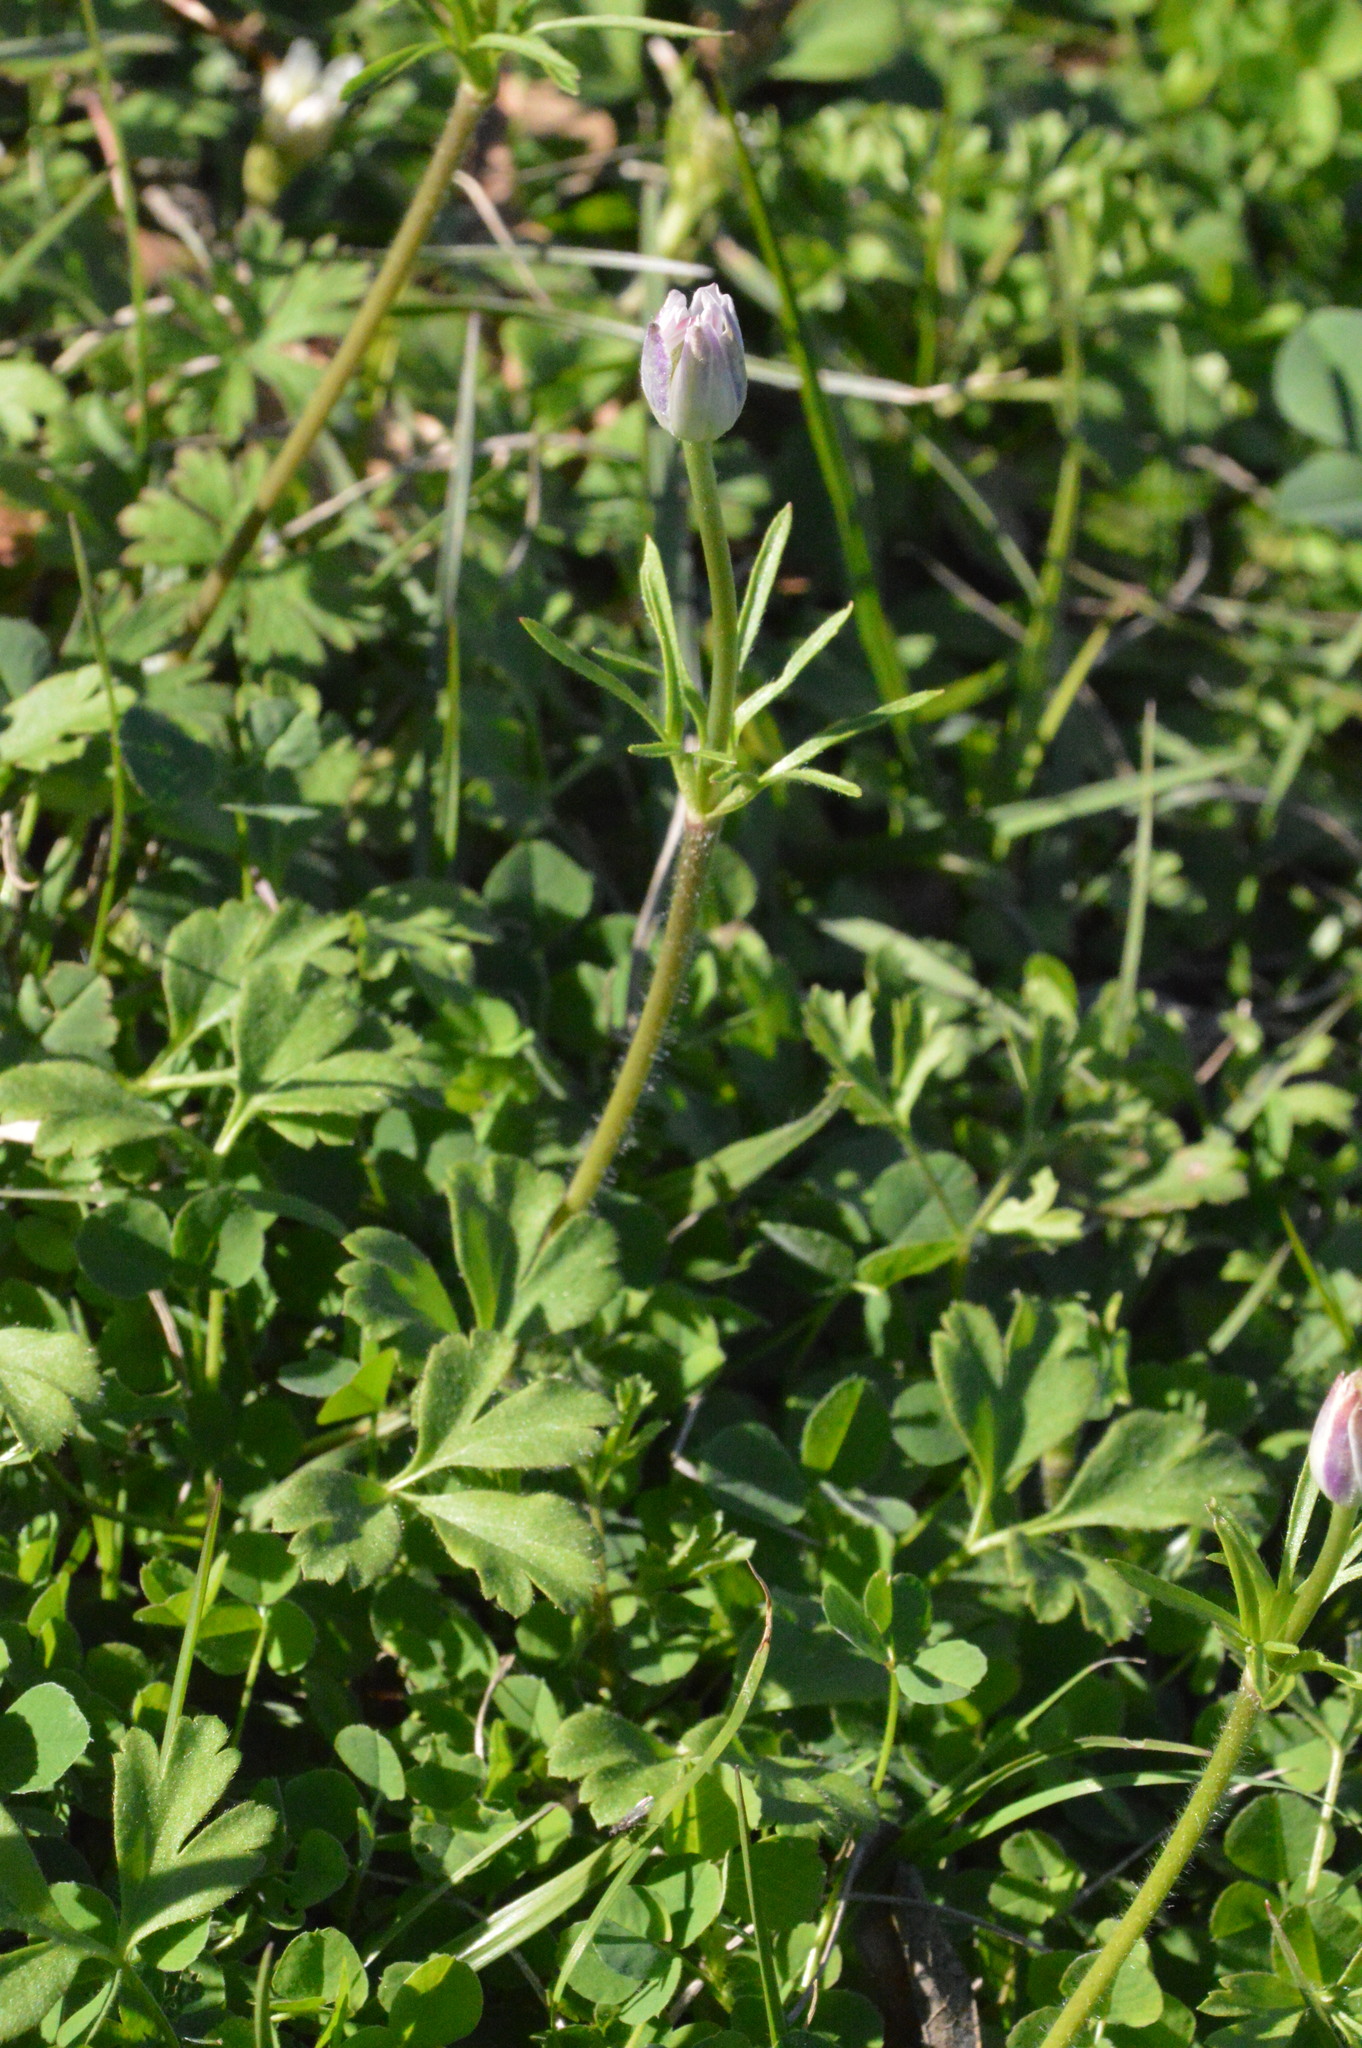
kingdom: Plantae
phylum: Tracheophyta
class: Magnoliopsida
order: Ranunculales
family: Ranunculaceae
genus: Anemone
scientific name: Anemone berlandieri
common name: Ten-petal anemone
